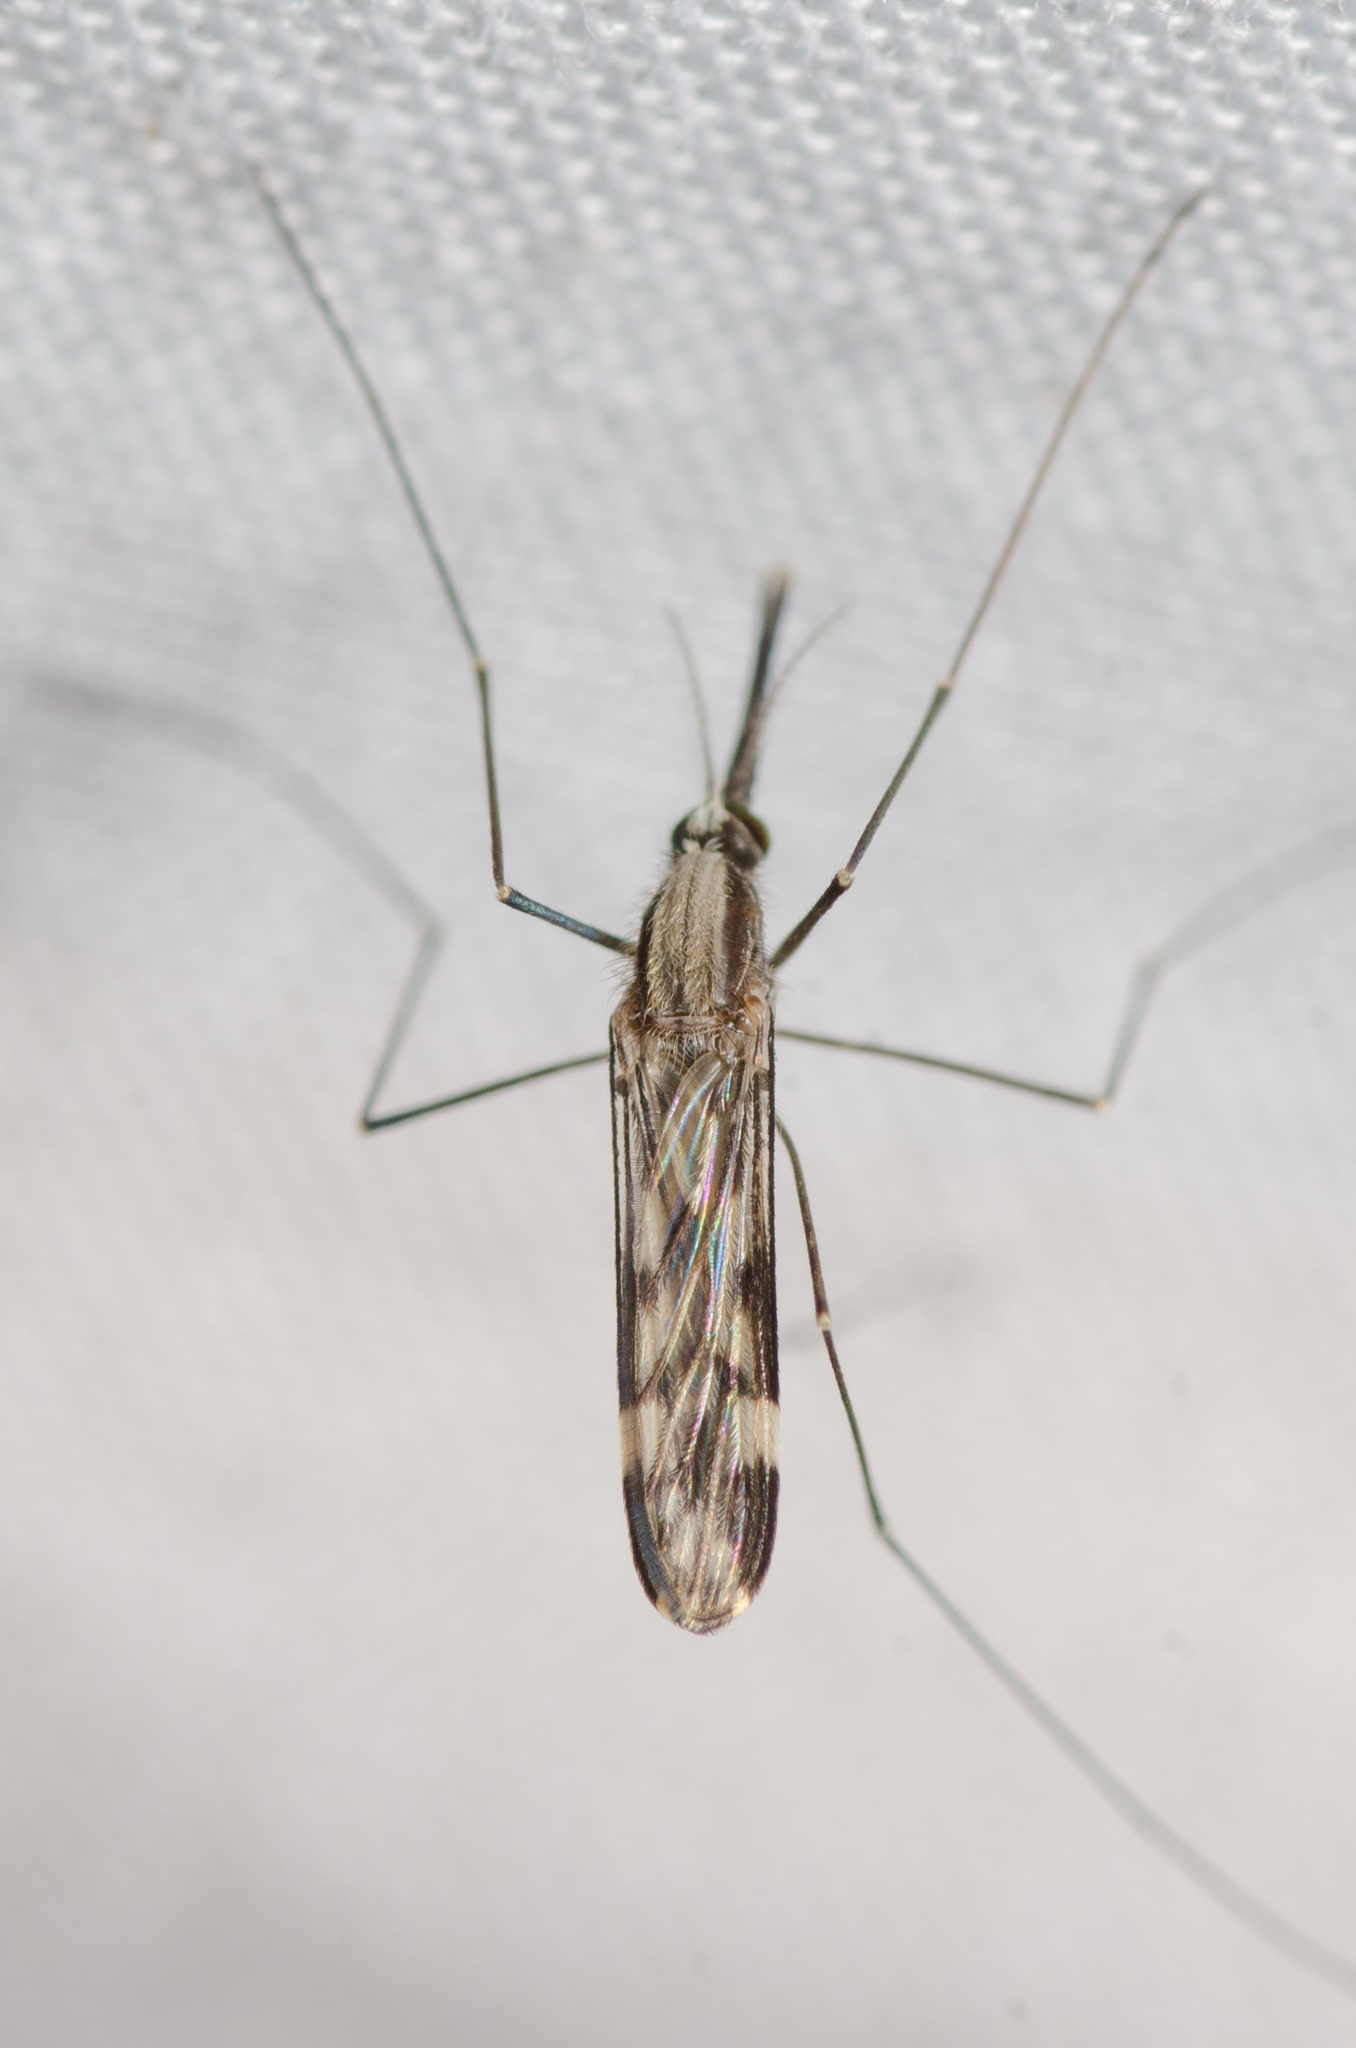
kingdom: Animalia
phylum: Arthropoda
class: Insecta
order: Diptera
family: Culicidae
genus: Anopheles
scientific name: Anopheles punctipennis
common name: Woodland malaria mosquito
